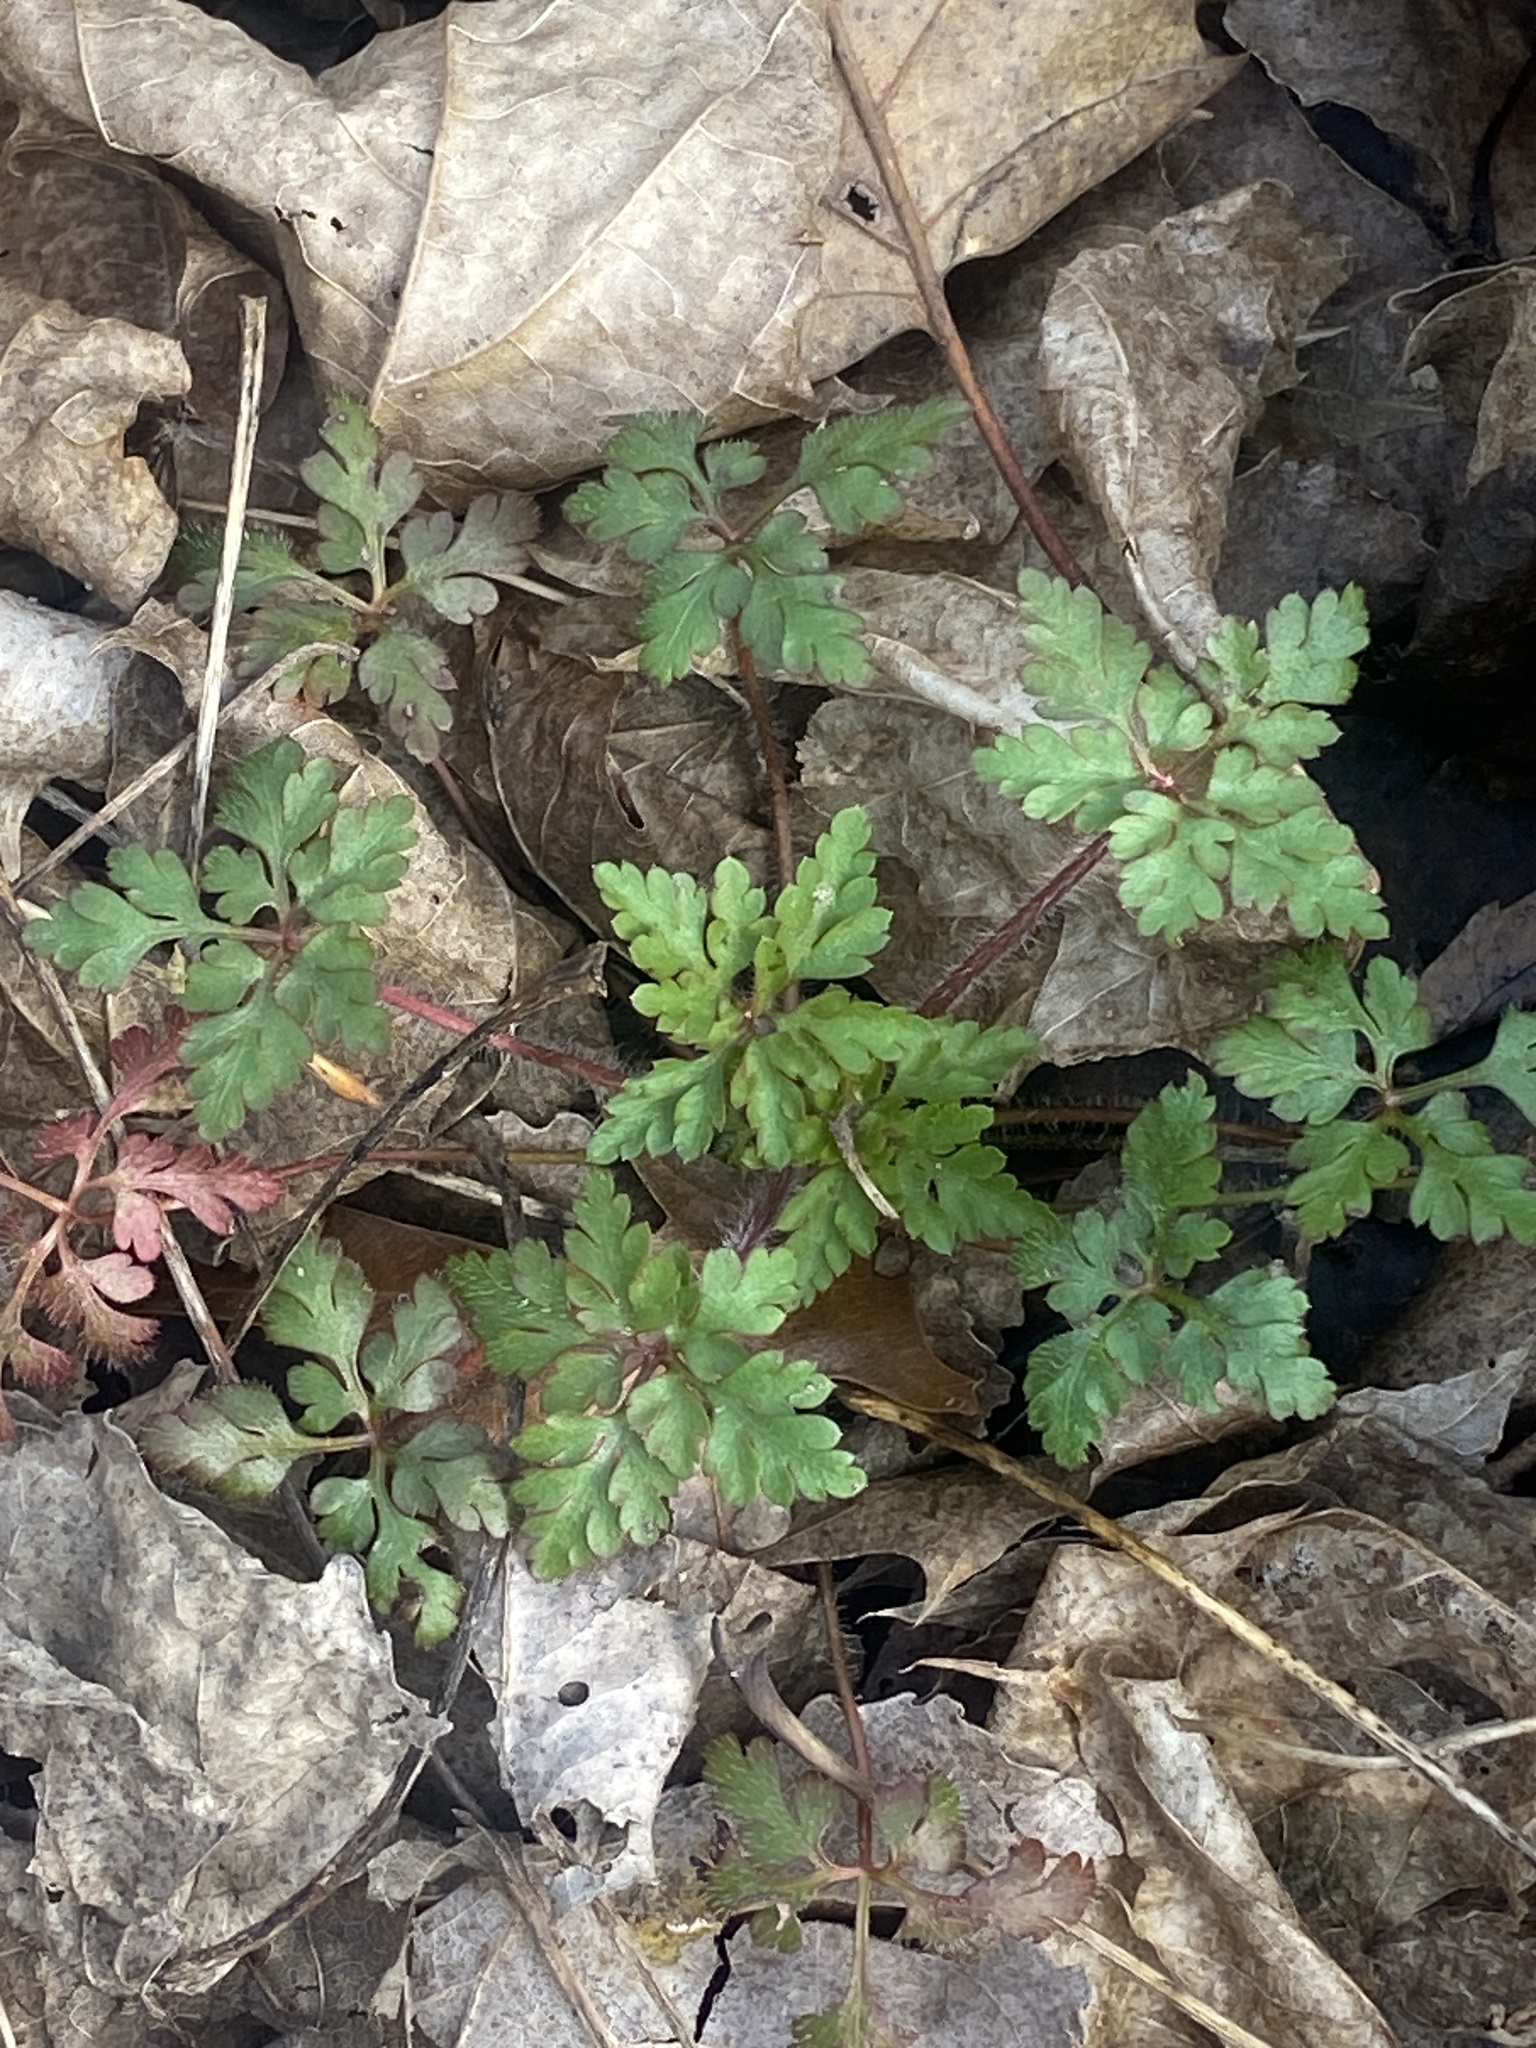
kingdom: Plantae
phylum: Tracheophyta
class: Magnoliopsida
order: Geraniales
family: Geraniaceae
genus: Geranium
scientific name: Geranium robertianum
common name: Herb-robert
